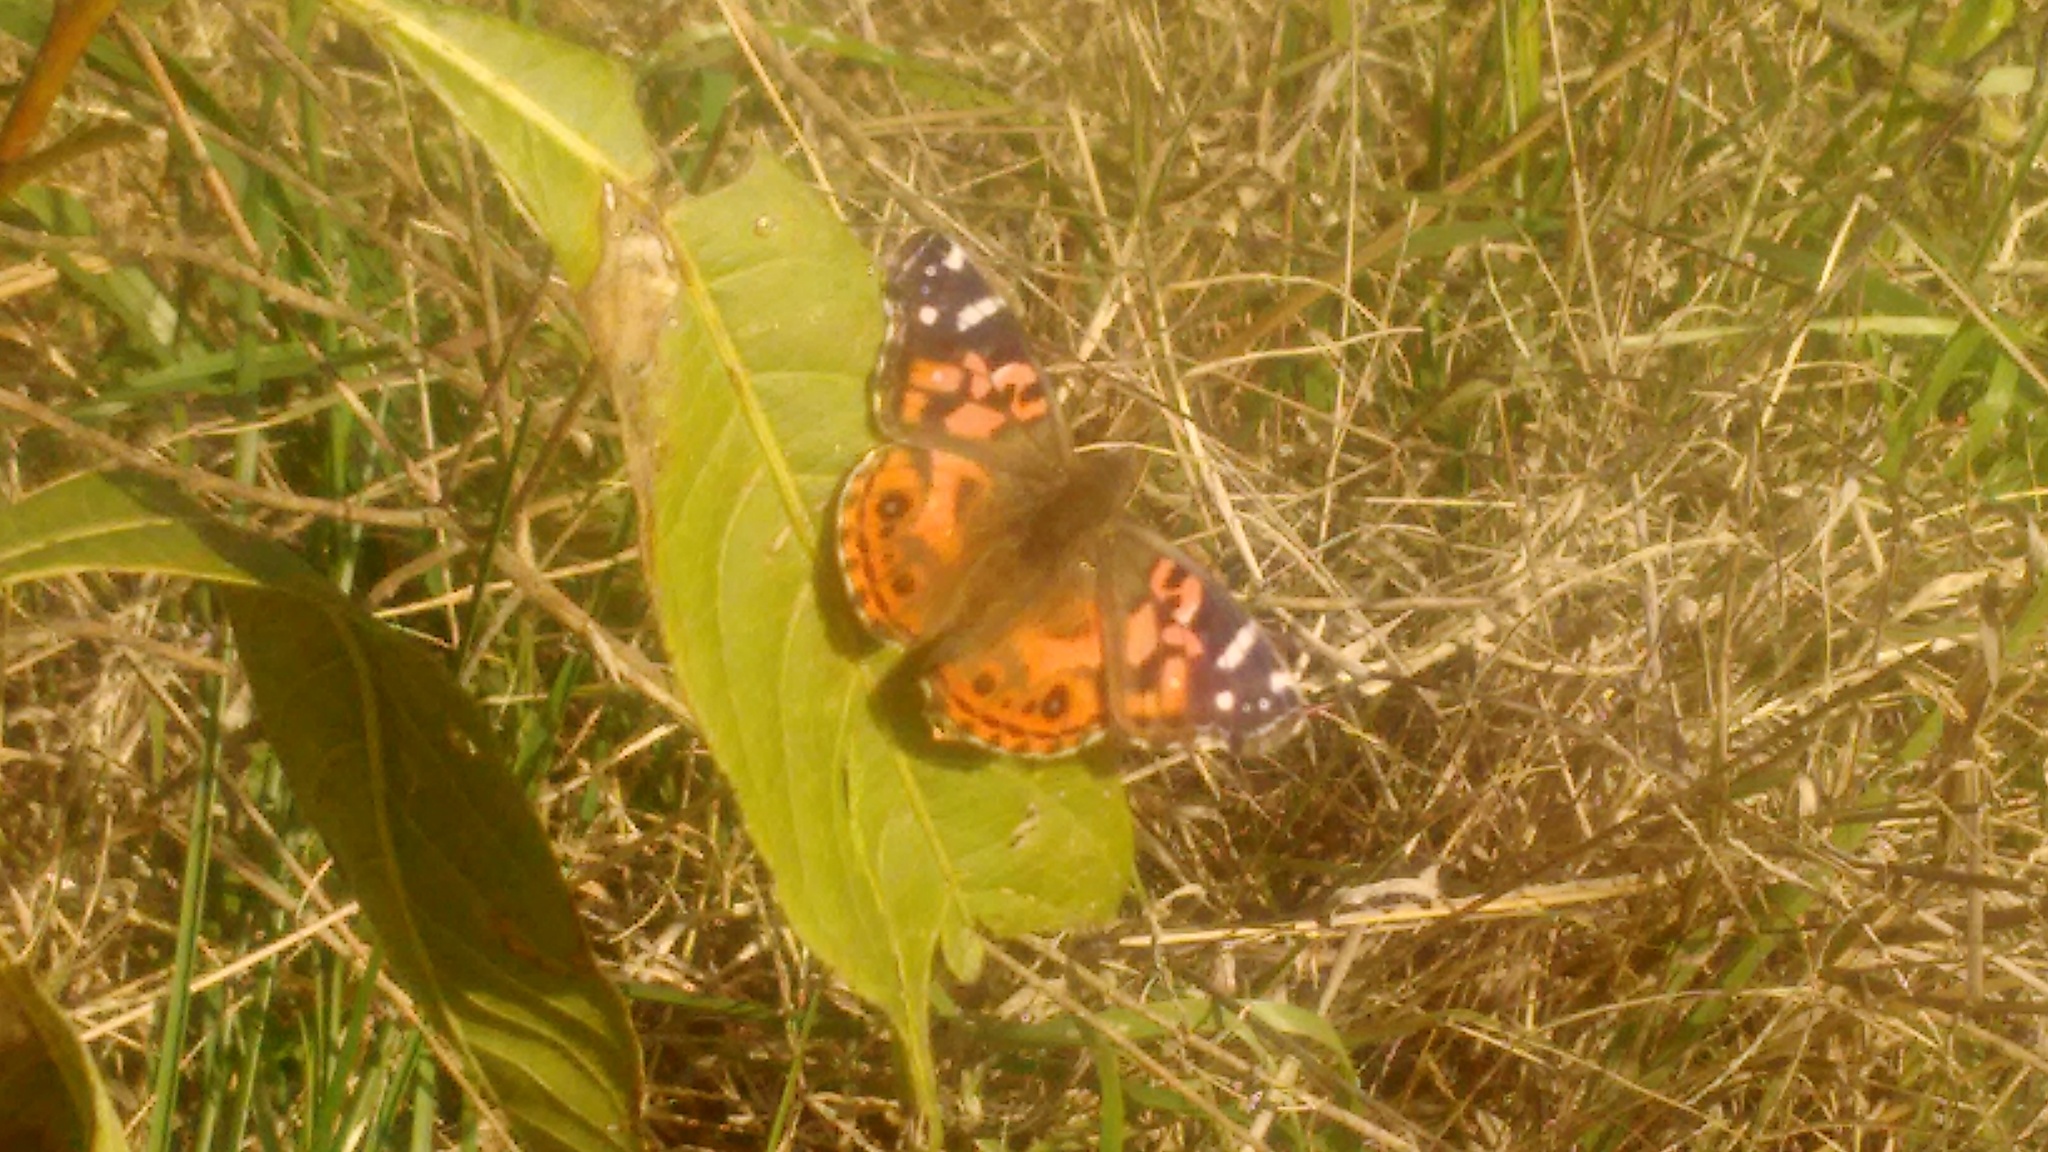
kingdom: Animalia
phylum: Arthropoda
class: Insecta
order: Lepidoptera
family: Nymphalidae
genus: Vanessa
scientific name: Vanessa braziliensis
